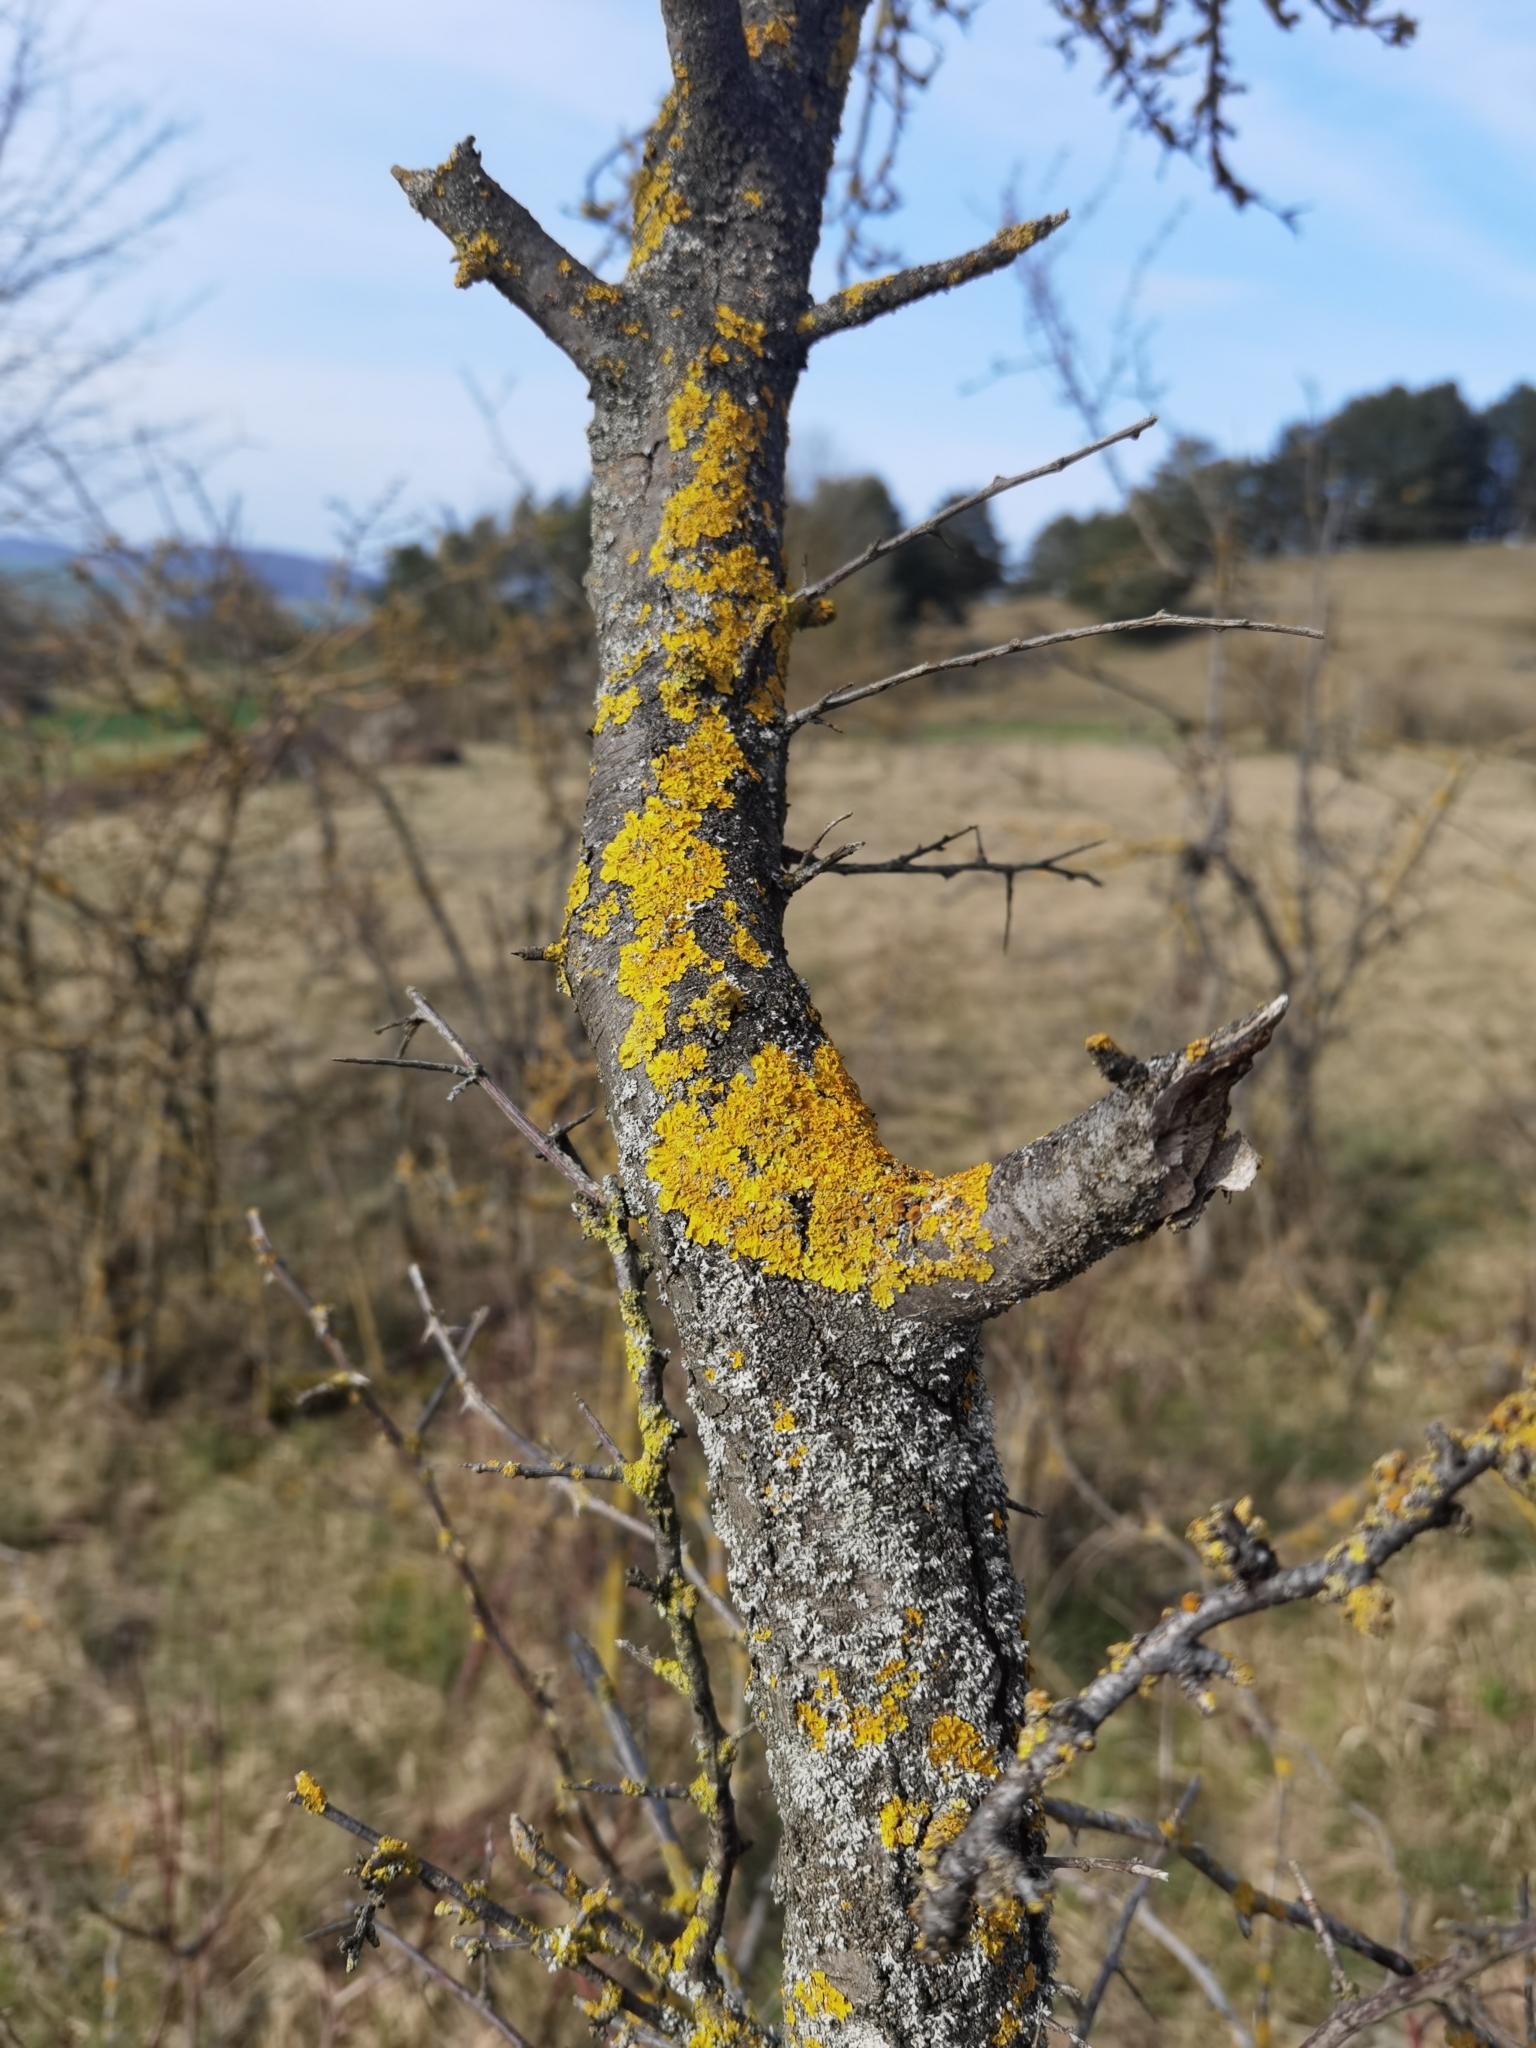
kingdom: Fungi
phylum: Ascomycota
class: Lecanoromycetes
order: Teloschistales
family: Teloschistaceae
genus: Xanthoria
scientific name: Xanthoria parietina
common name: Common orange lichen
